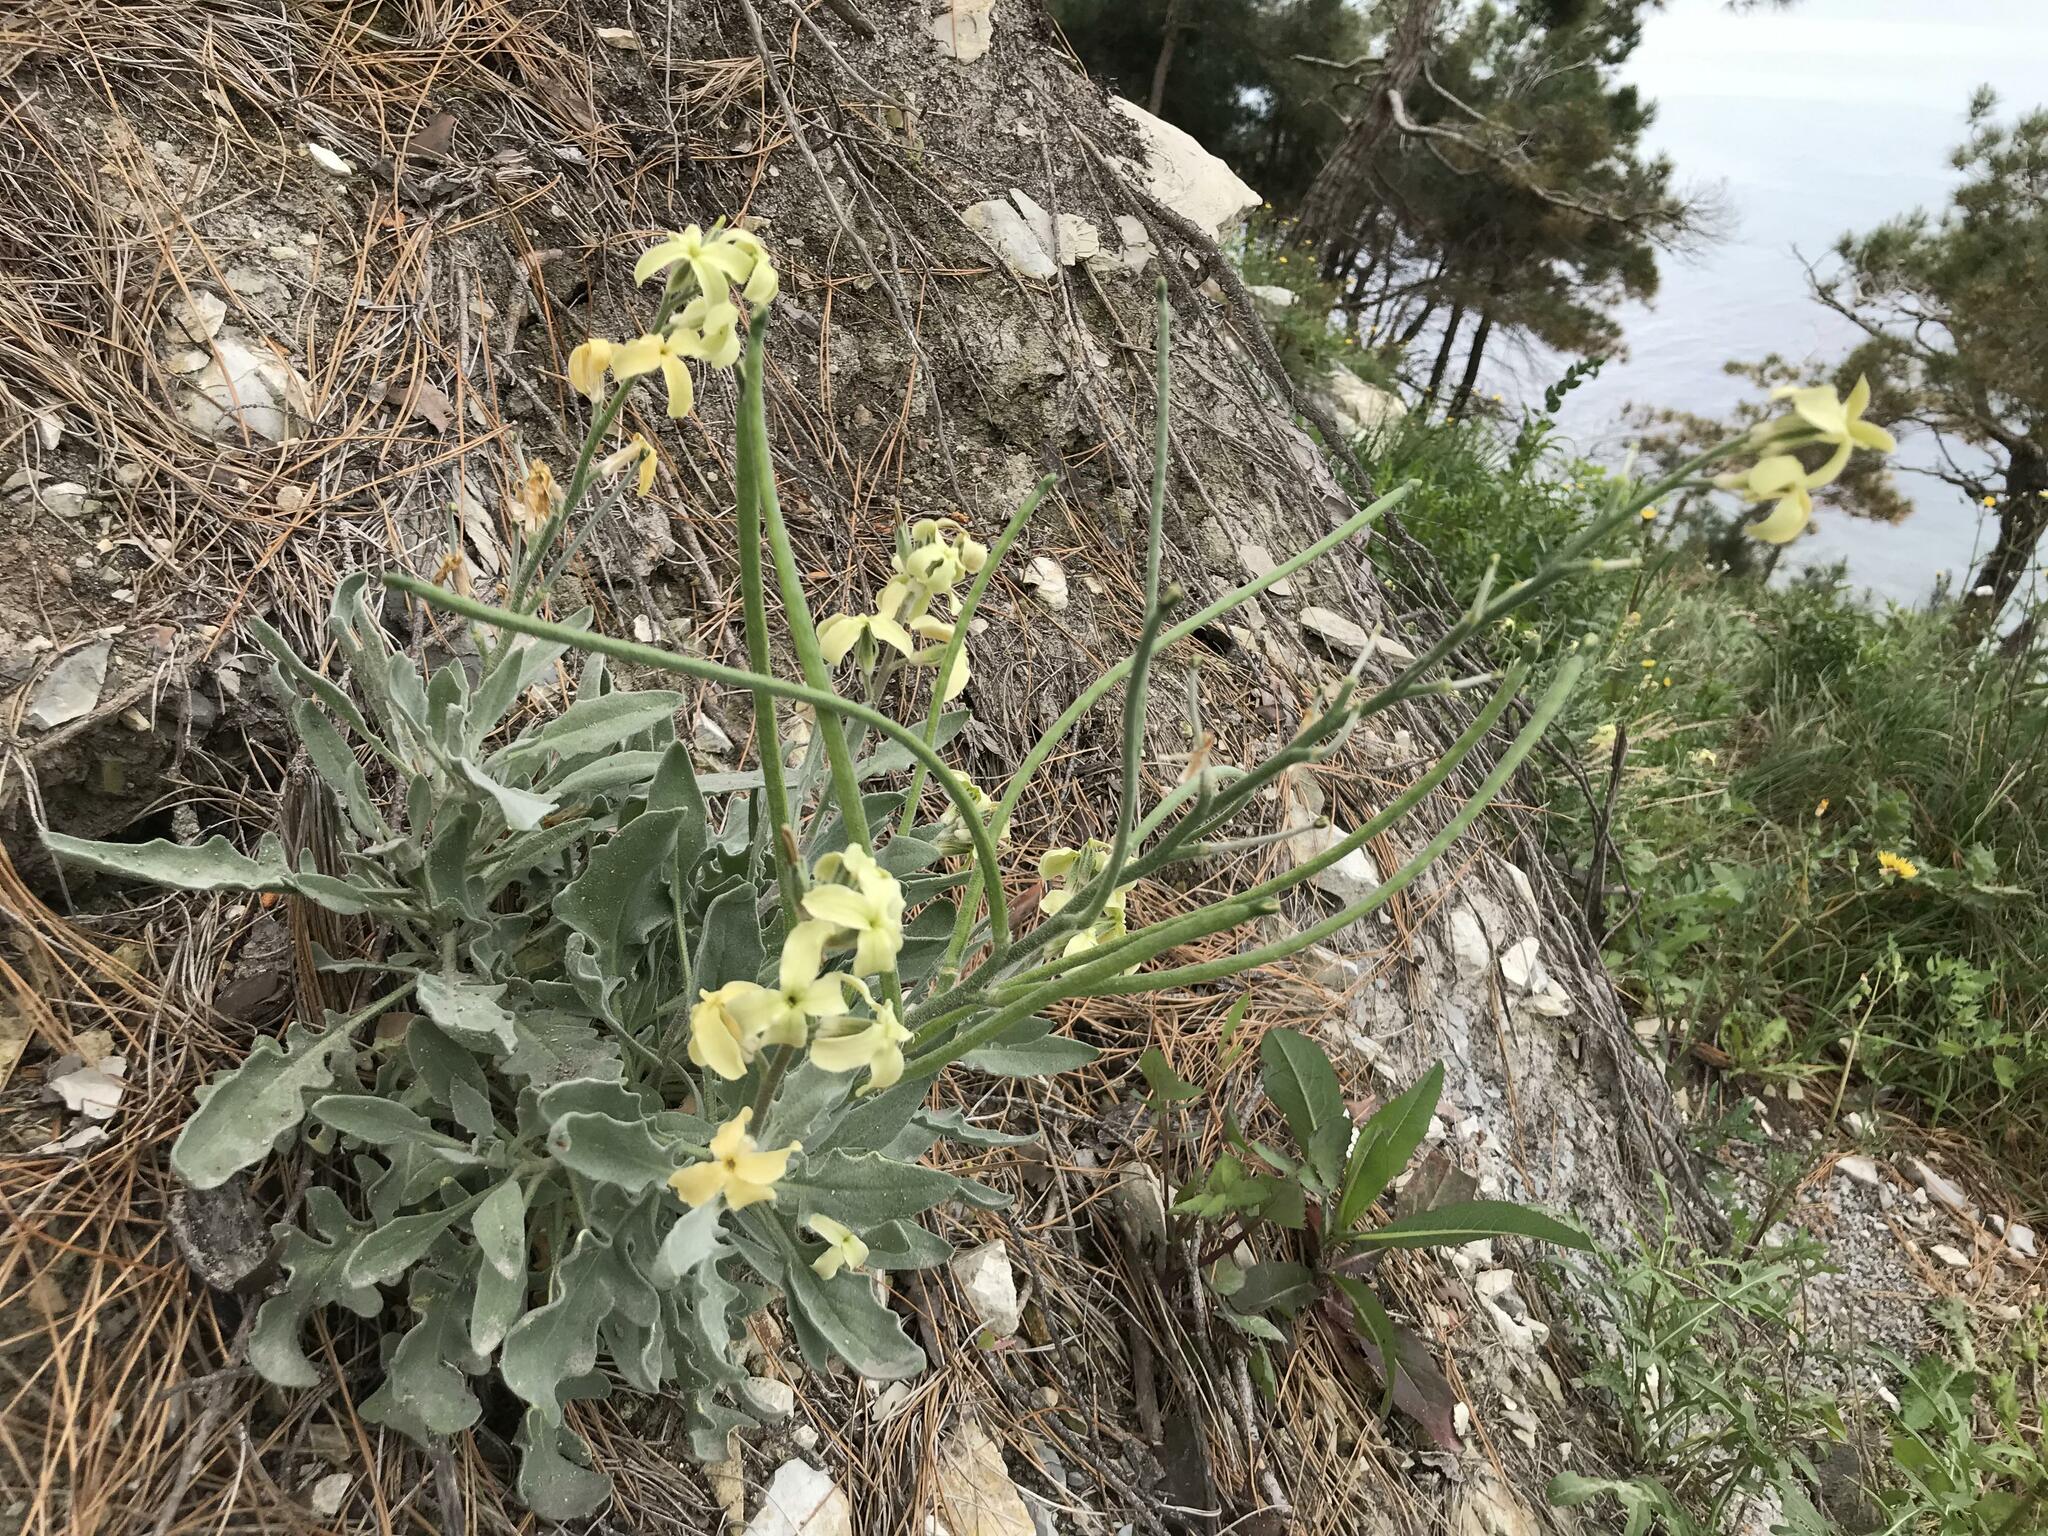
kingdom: Plantae
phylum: Tracheophyta
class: Magnoliopsida
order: Brassicales
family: Brassicaceae
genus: Matthiola
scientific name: Matthiola odoratissima
